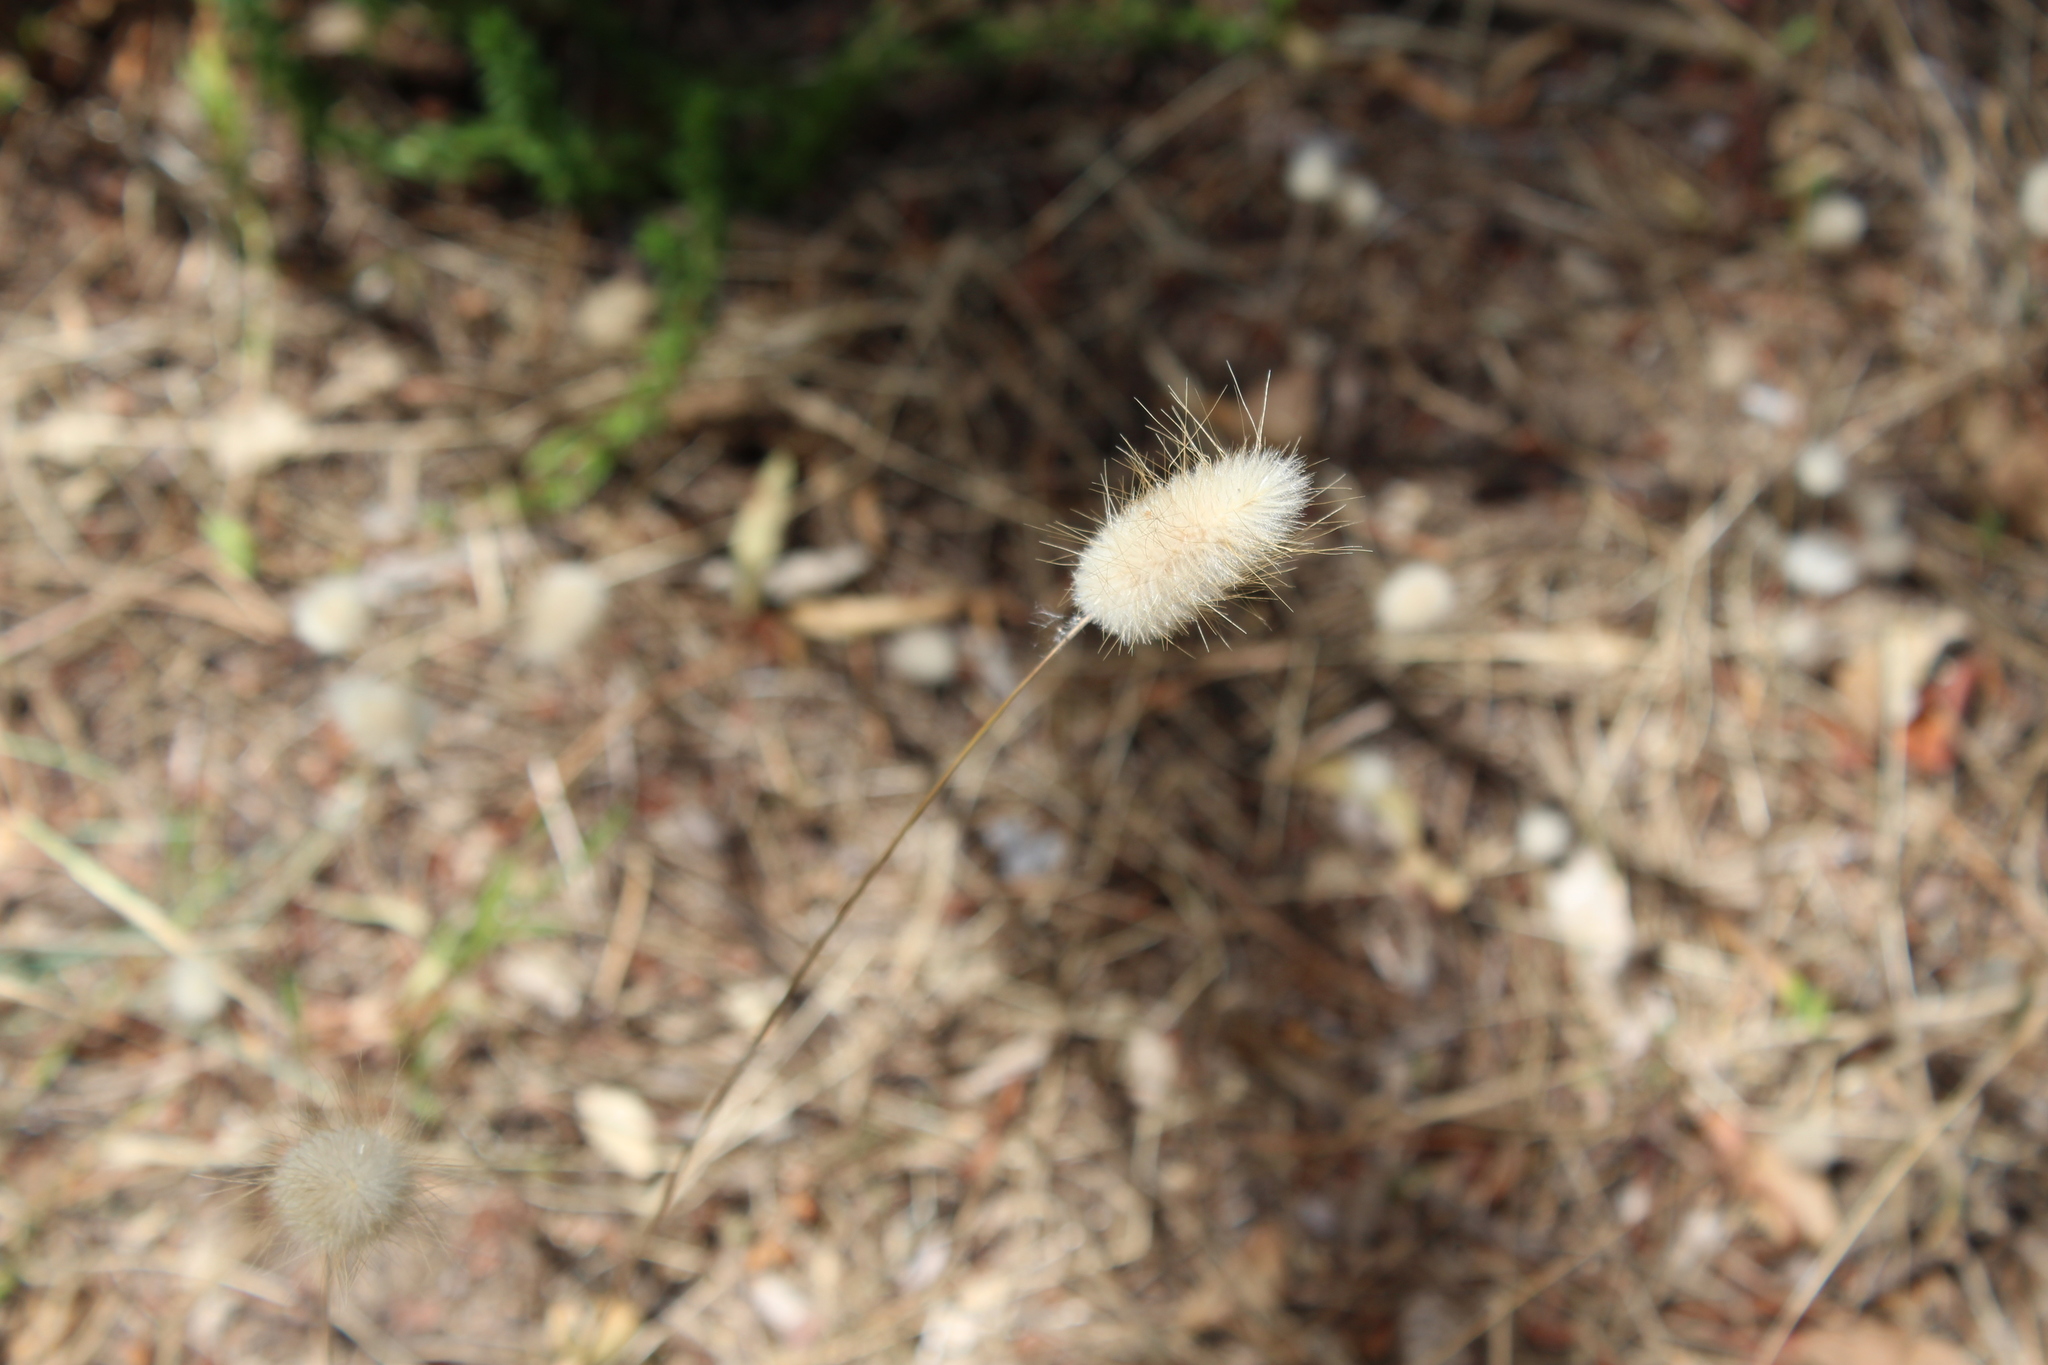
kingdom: Plantae
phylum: Tracheophyta
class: Liliopsida
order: Poales
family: Poaceae
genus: Lagurus
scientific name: Lagurus ovatus
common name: Hare's-tail
